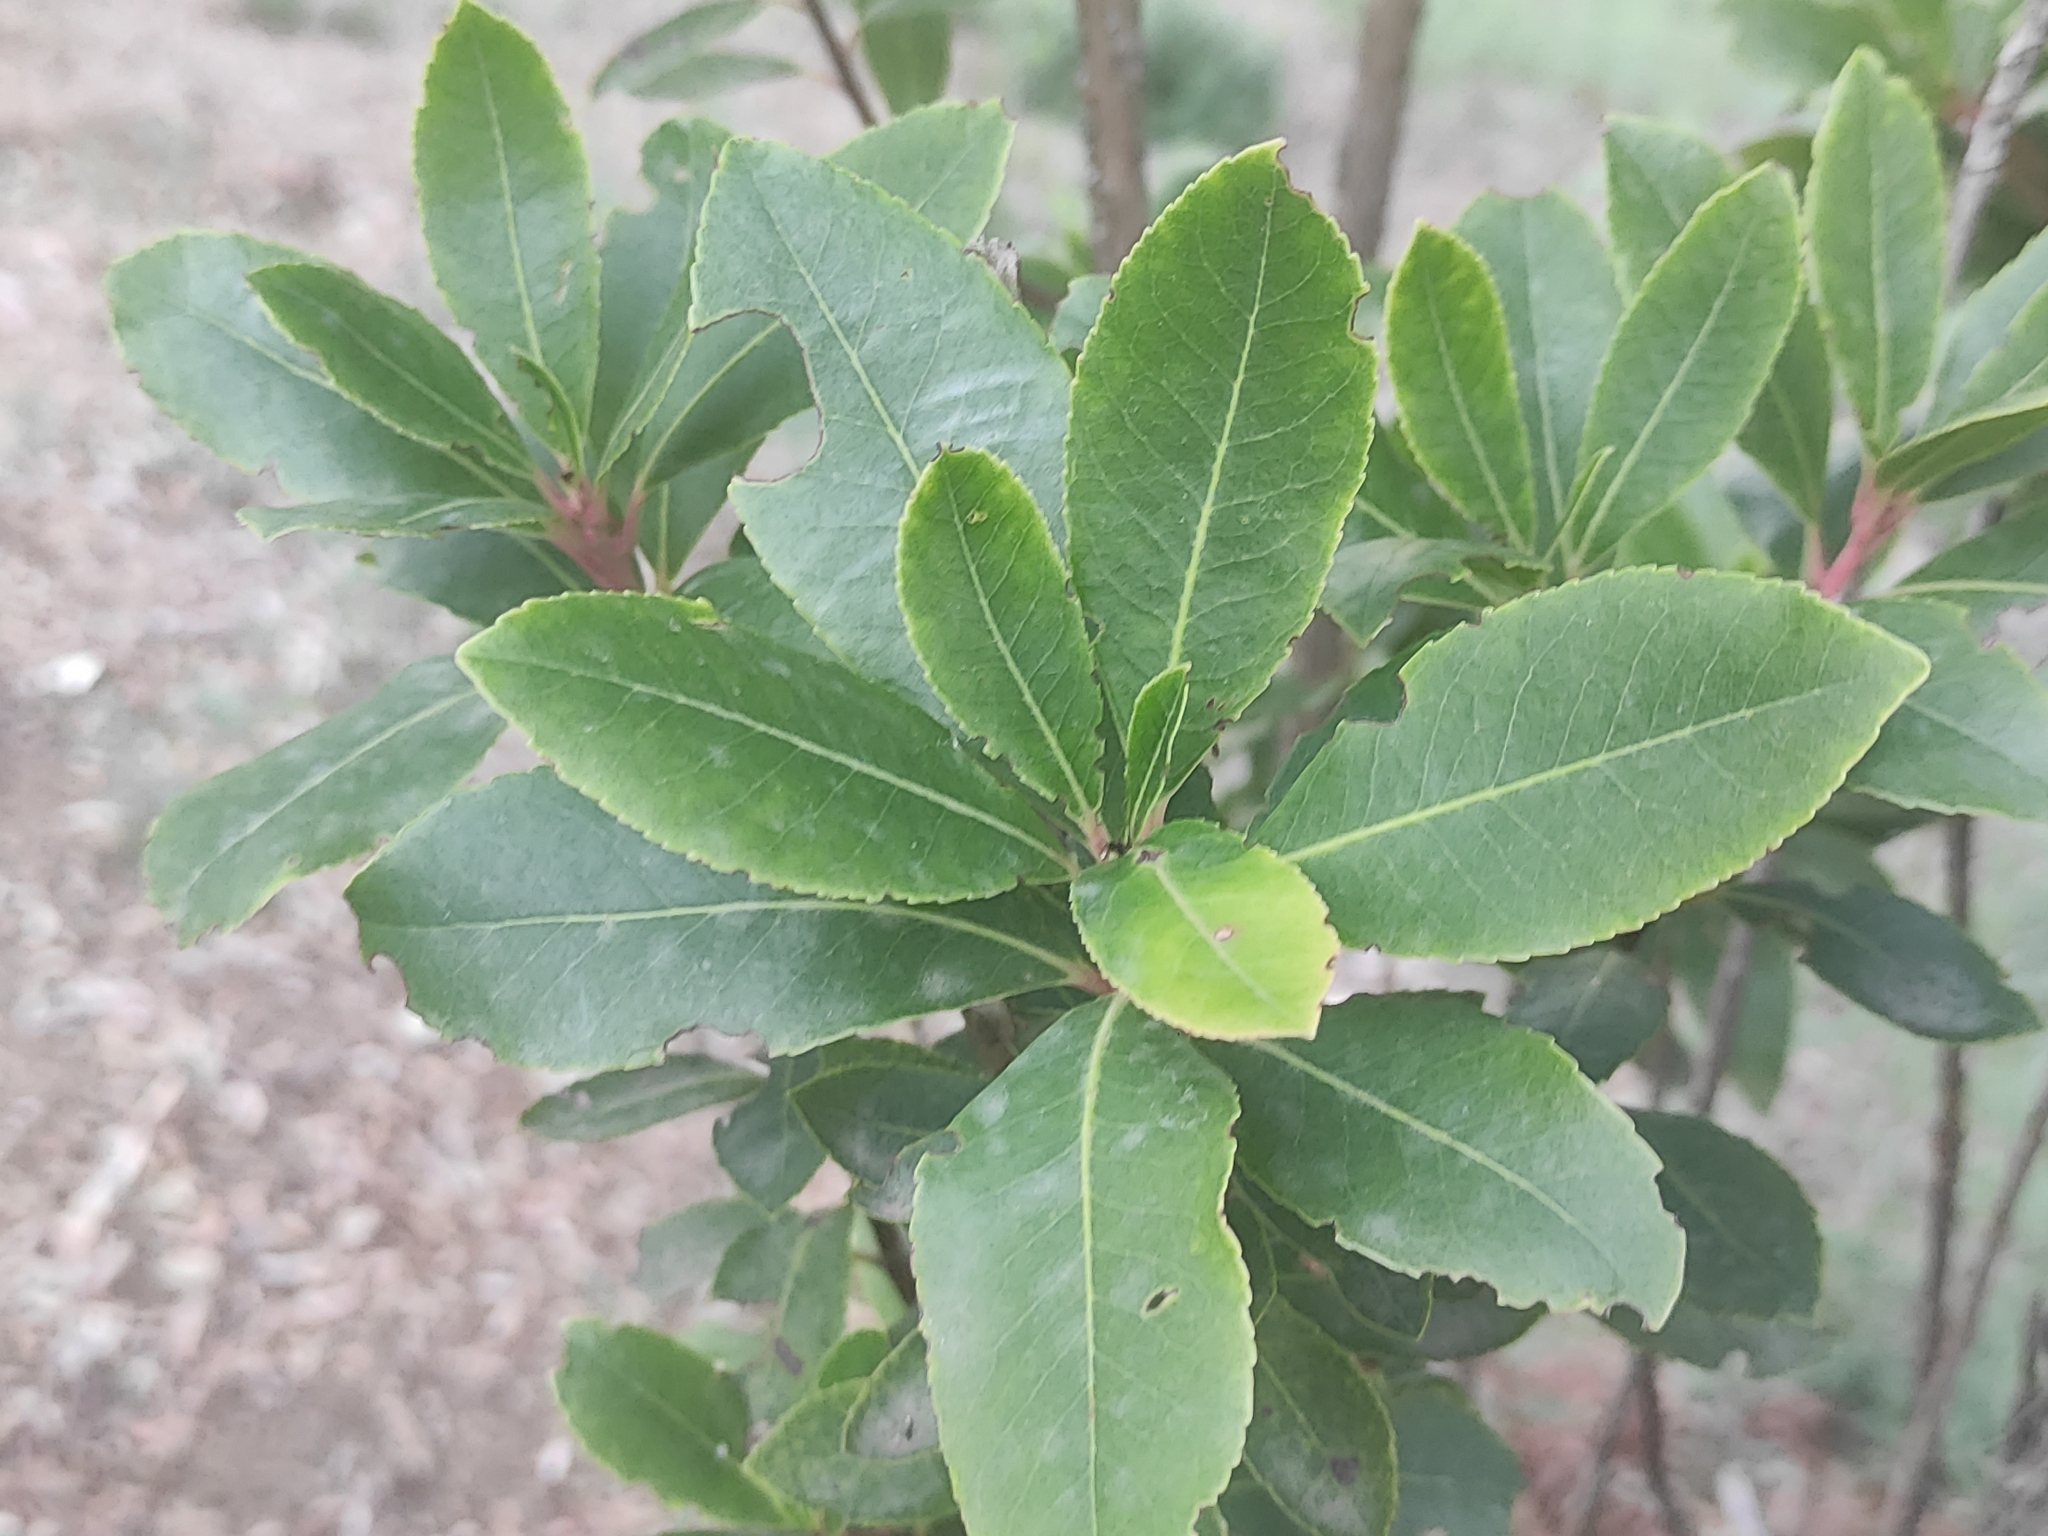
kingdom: Plantae
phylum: Tracheophyta
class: Magnoliopsida
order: Ericales
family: Ericaceae
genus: Arbutus
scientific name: Arbutus unedo
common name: Strawberry-tree
